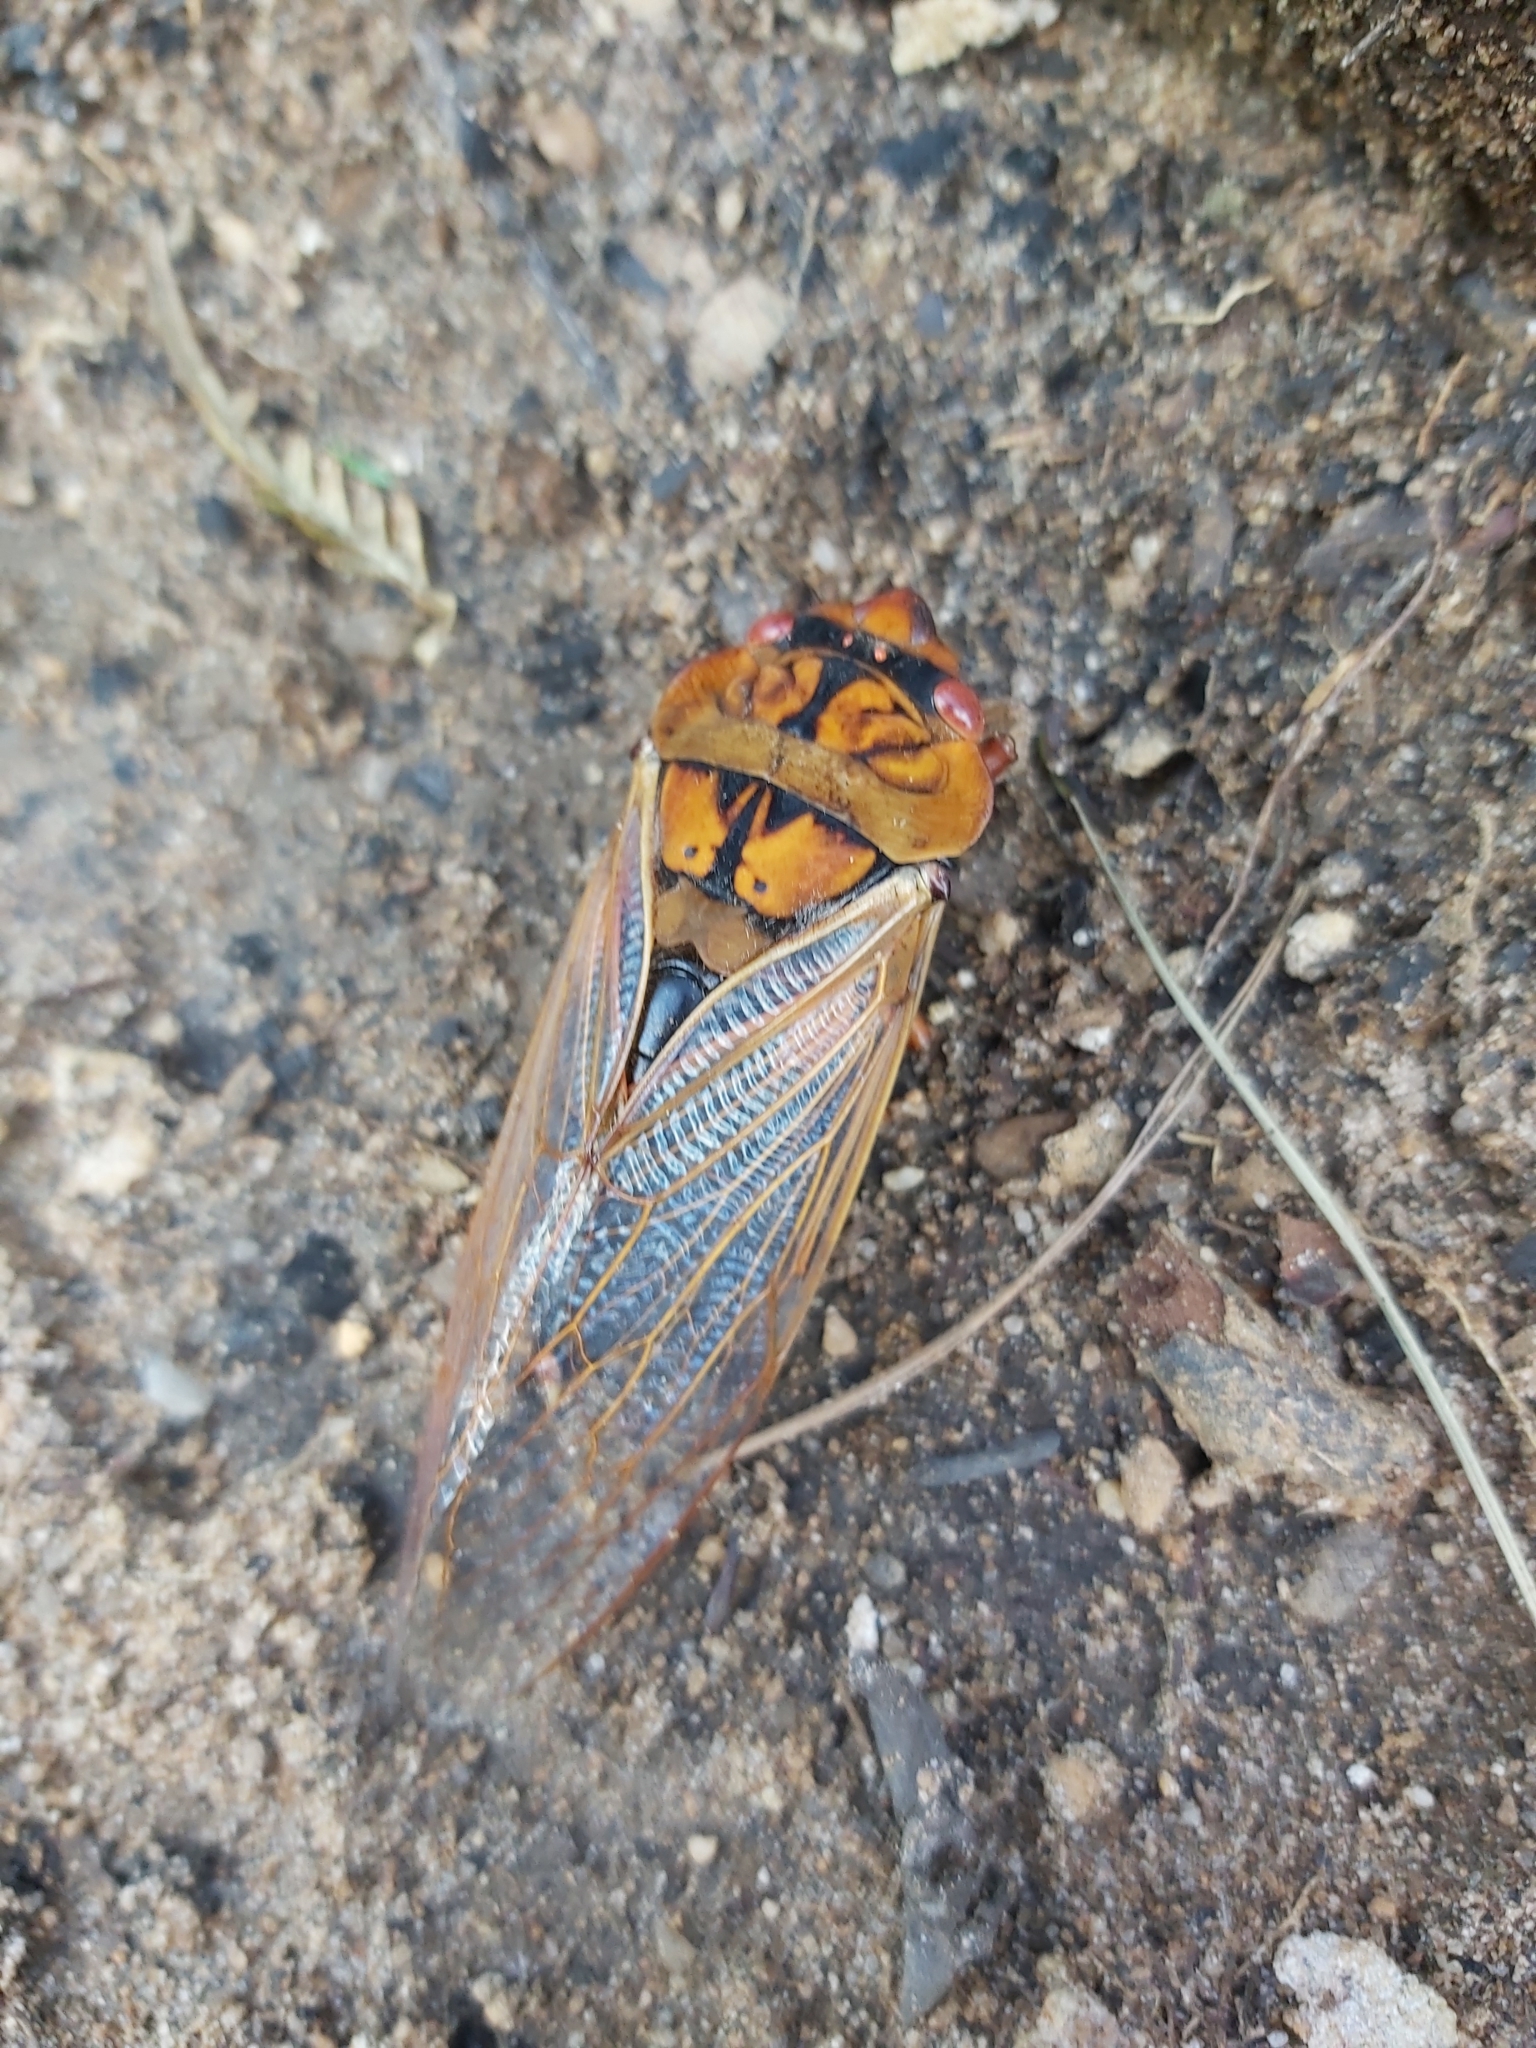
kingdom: Animalia
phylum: Arthropoda
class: Insecta
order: Hemiptera
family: Cicadidae
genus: Cyclochila
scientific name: Cyclochila australasiae
